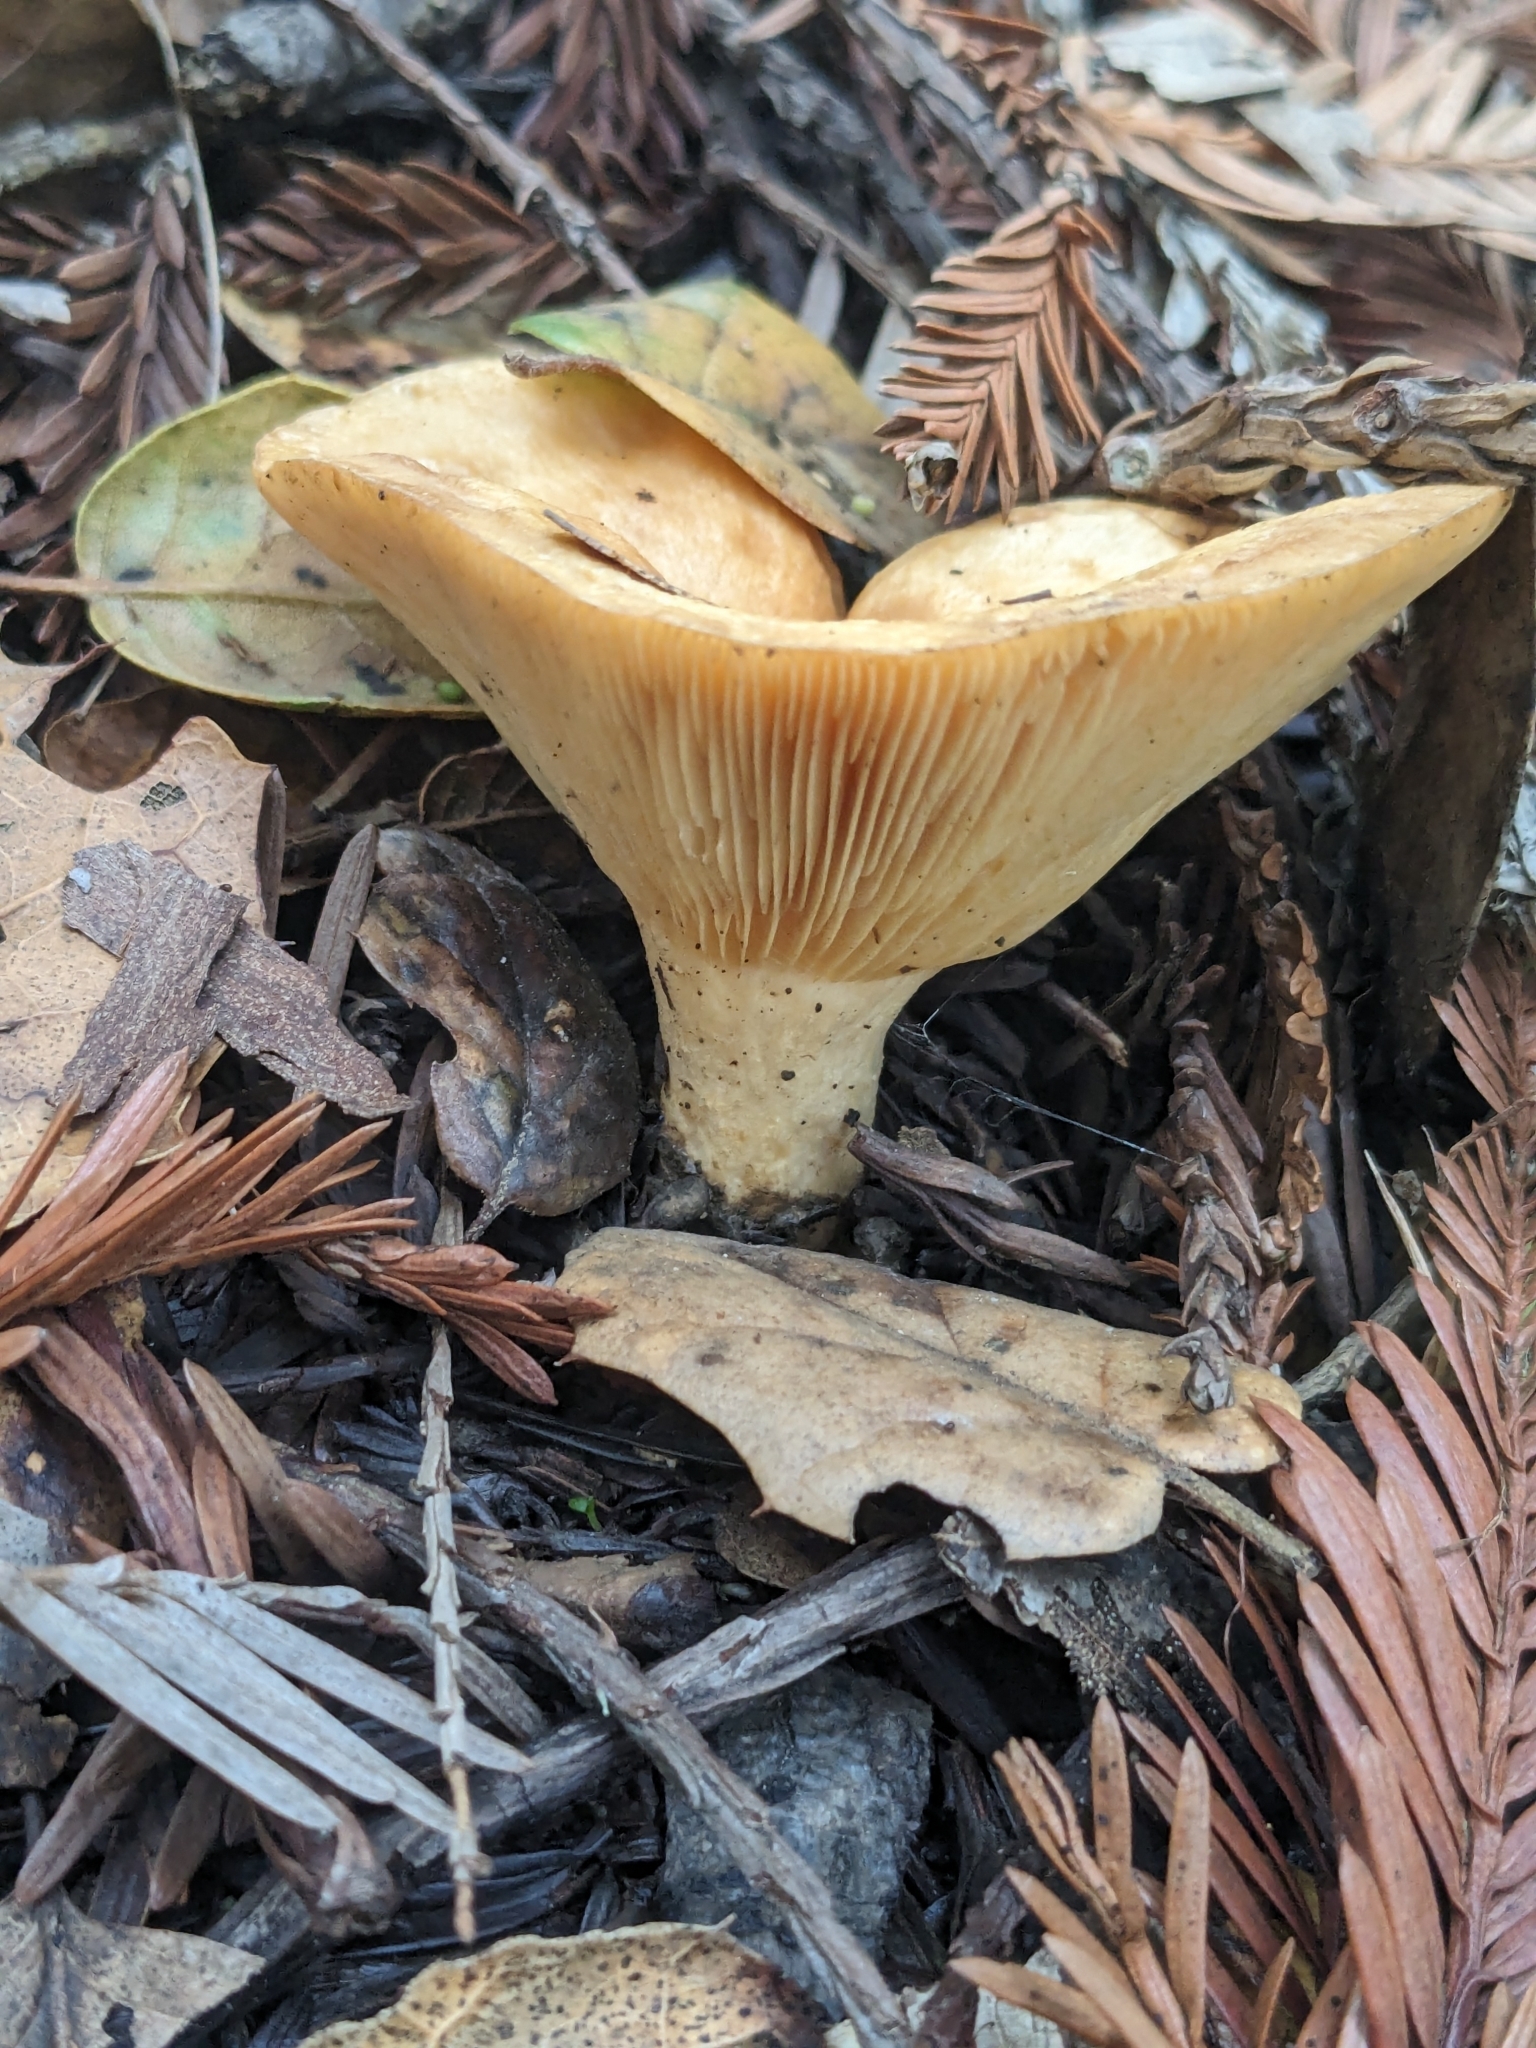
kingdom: Fungi
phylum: Basidiomycota
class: Agaricomycetes
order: Russulales
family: Russulaceae
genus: Lactarius
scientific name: Lactarius alnicola
